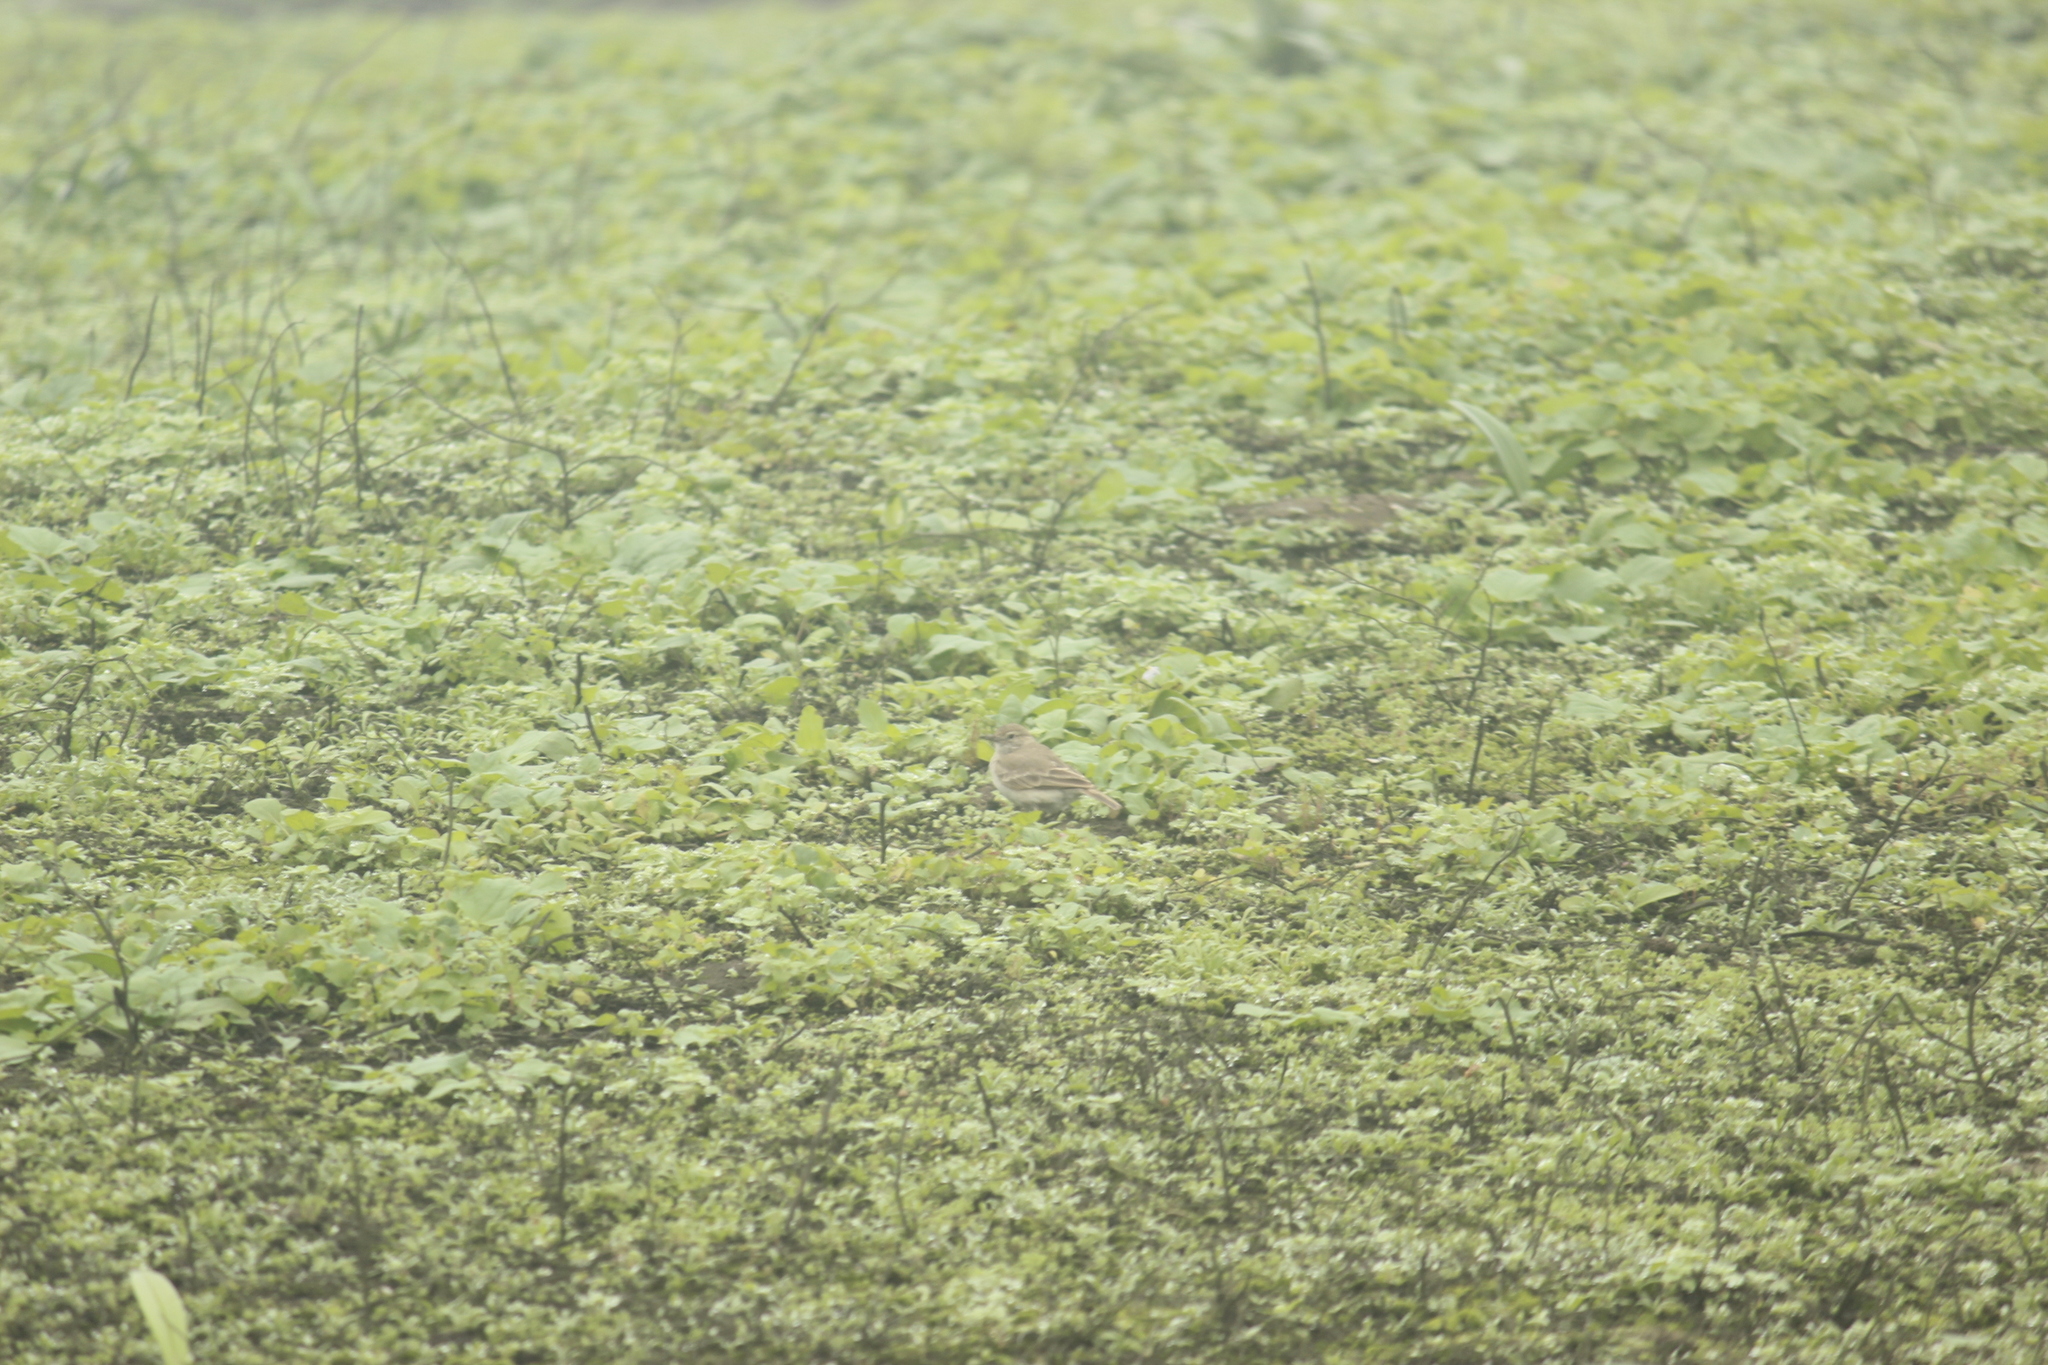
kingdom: Animalia
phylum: Chordata
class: Aves
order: Passeriformes
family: Furnariidae
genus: Geositta
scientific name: Geositta peruviana
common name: Coastal miner
